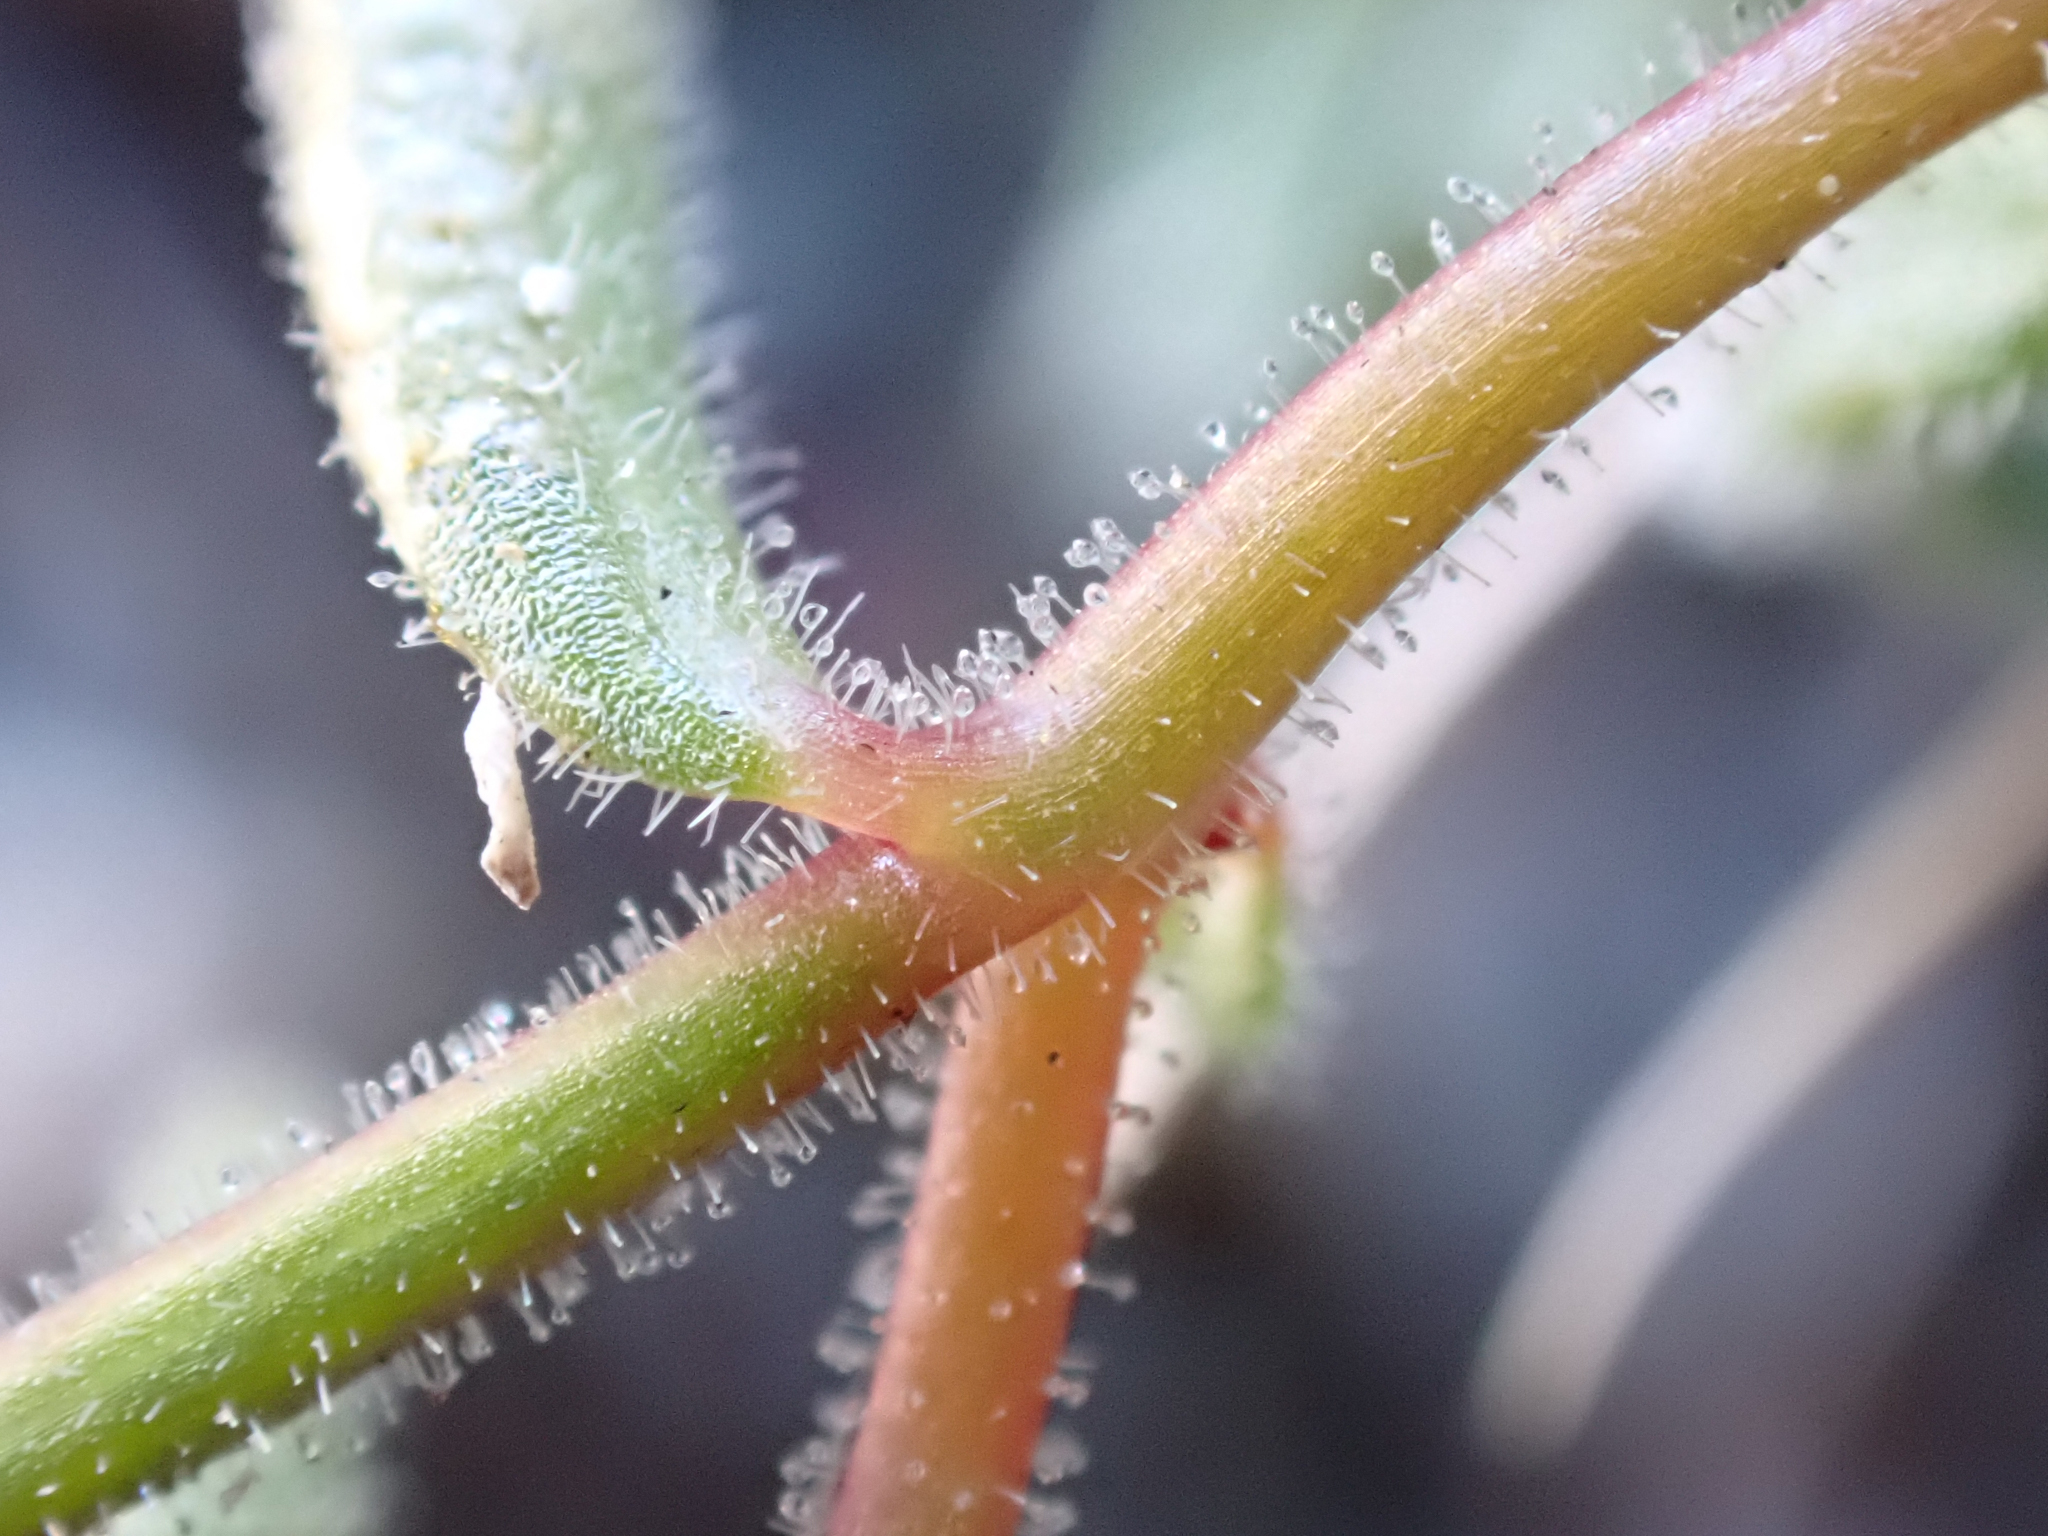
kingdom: Plantae
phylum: Tracheophyta
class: Magnoliopsida
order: Myrtales
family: Onagraceae
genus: Camissonia
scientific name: Camissonia benitensis
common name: San benito-evening-primrose
